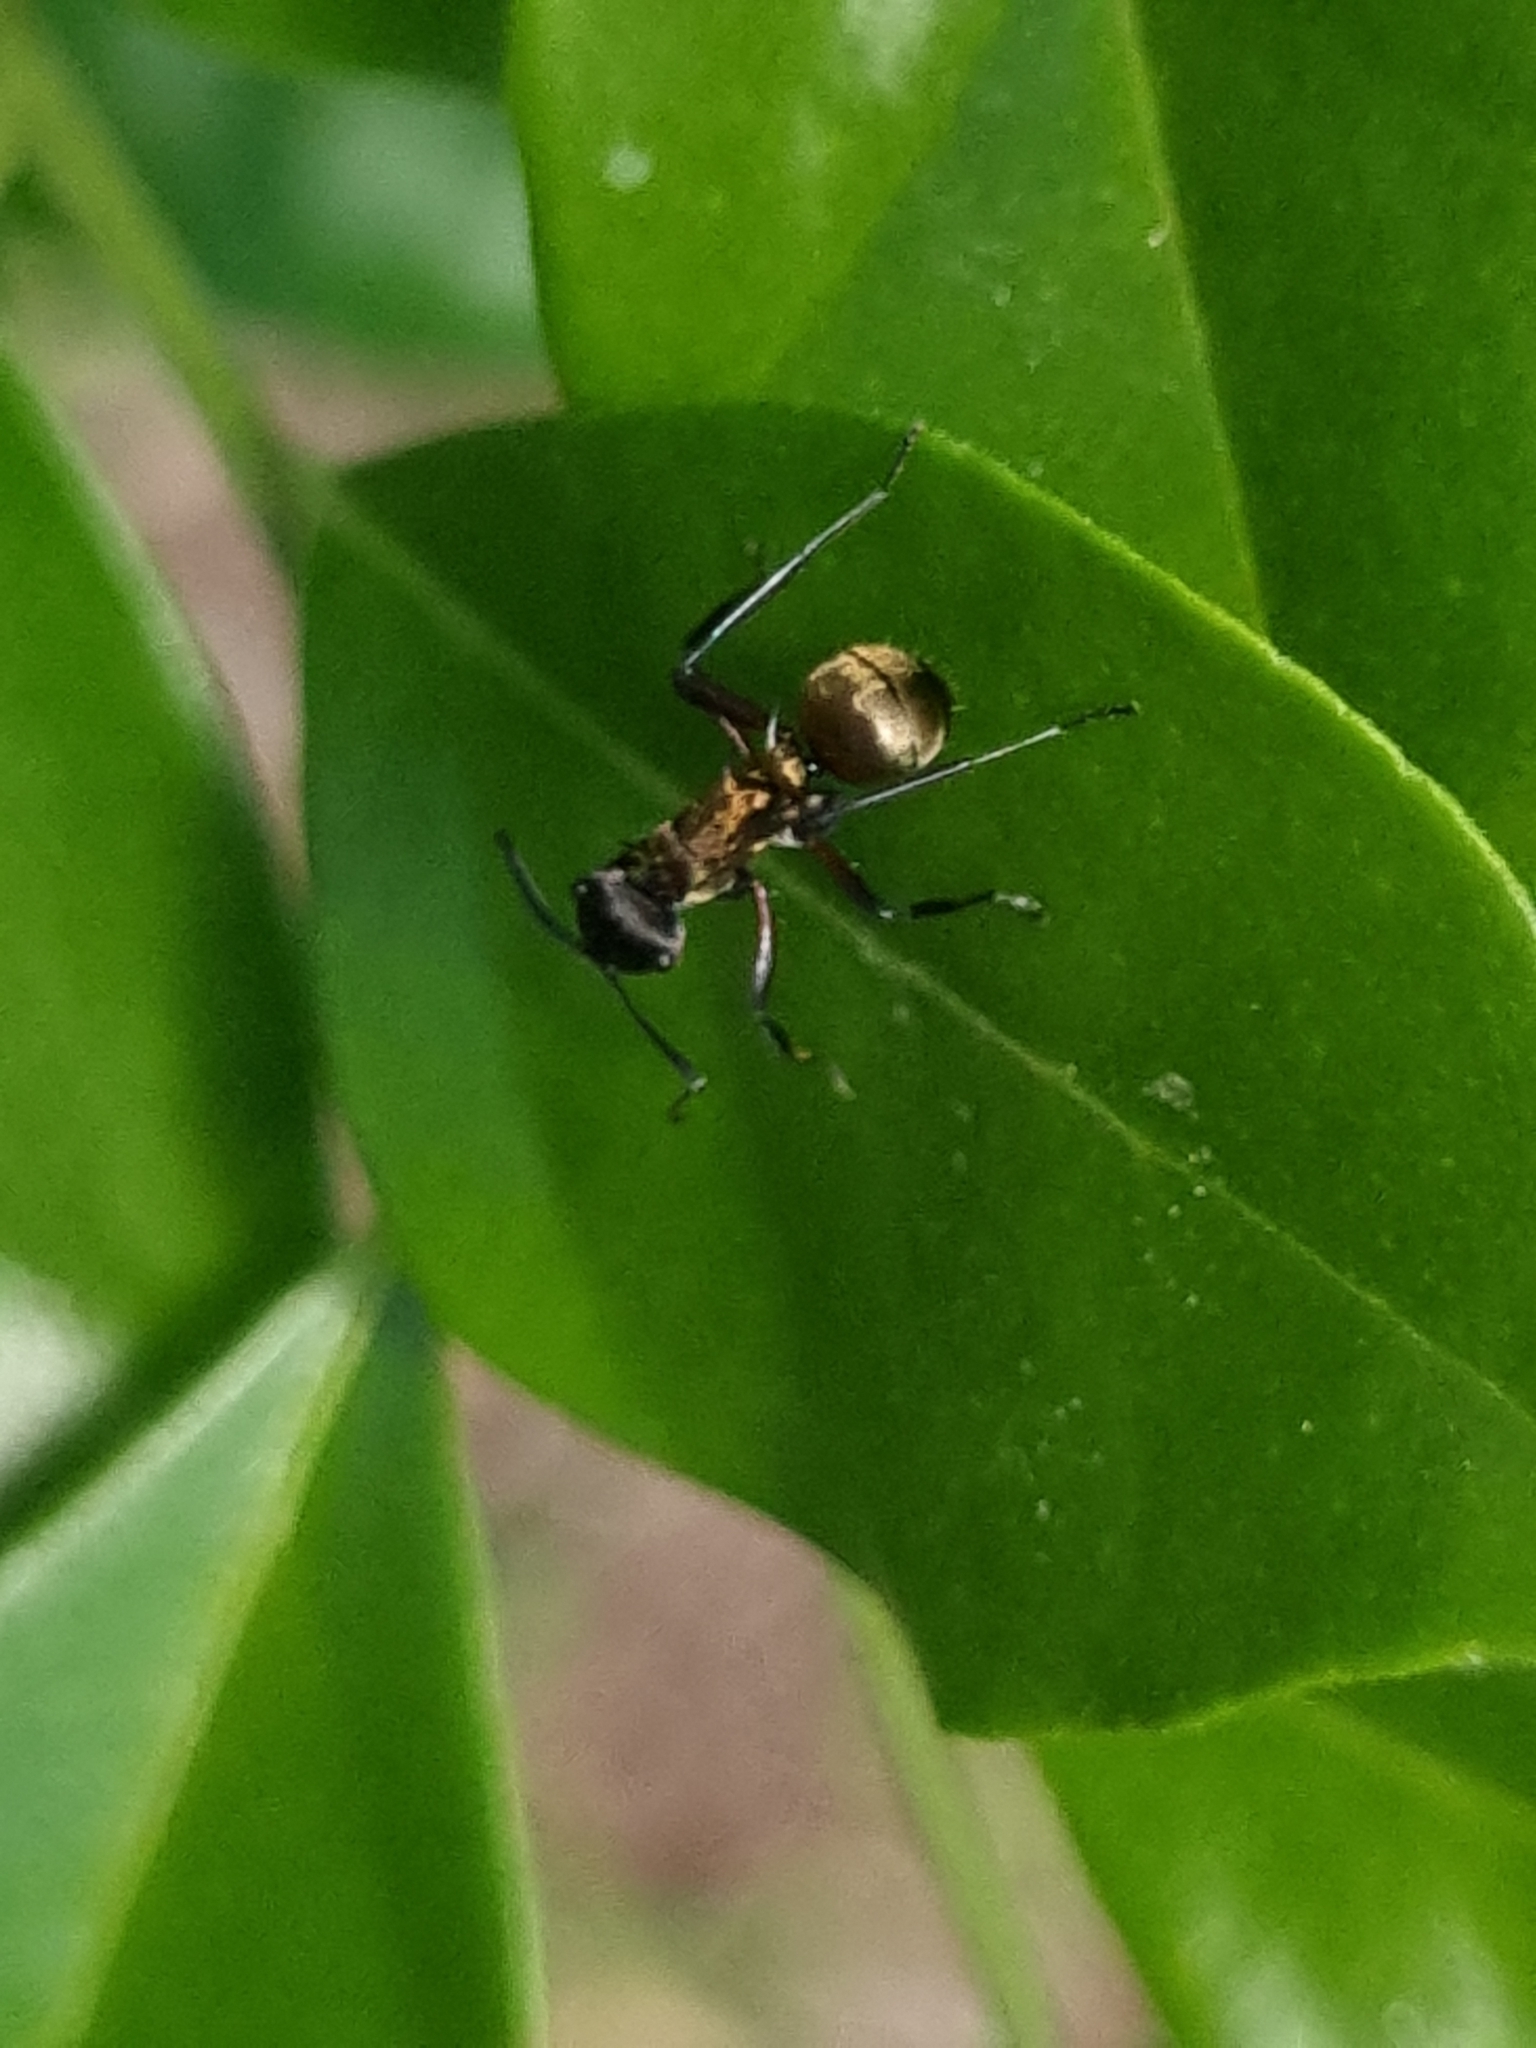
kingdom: Animalia
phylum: Arthropoda
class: Insecta
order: Hymenoptera
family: Formicidae
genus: Polyrhachis
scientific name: Polyrhachis rufifemur
